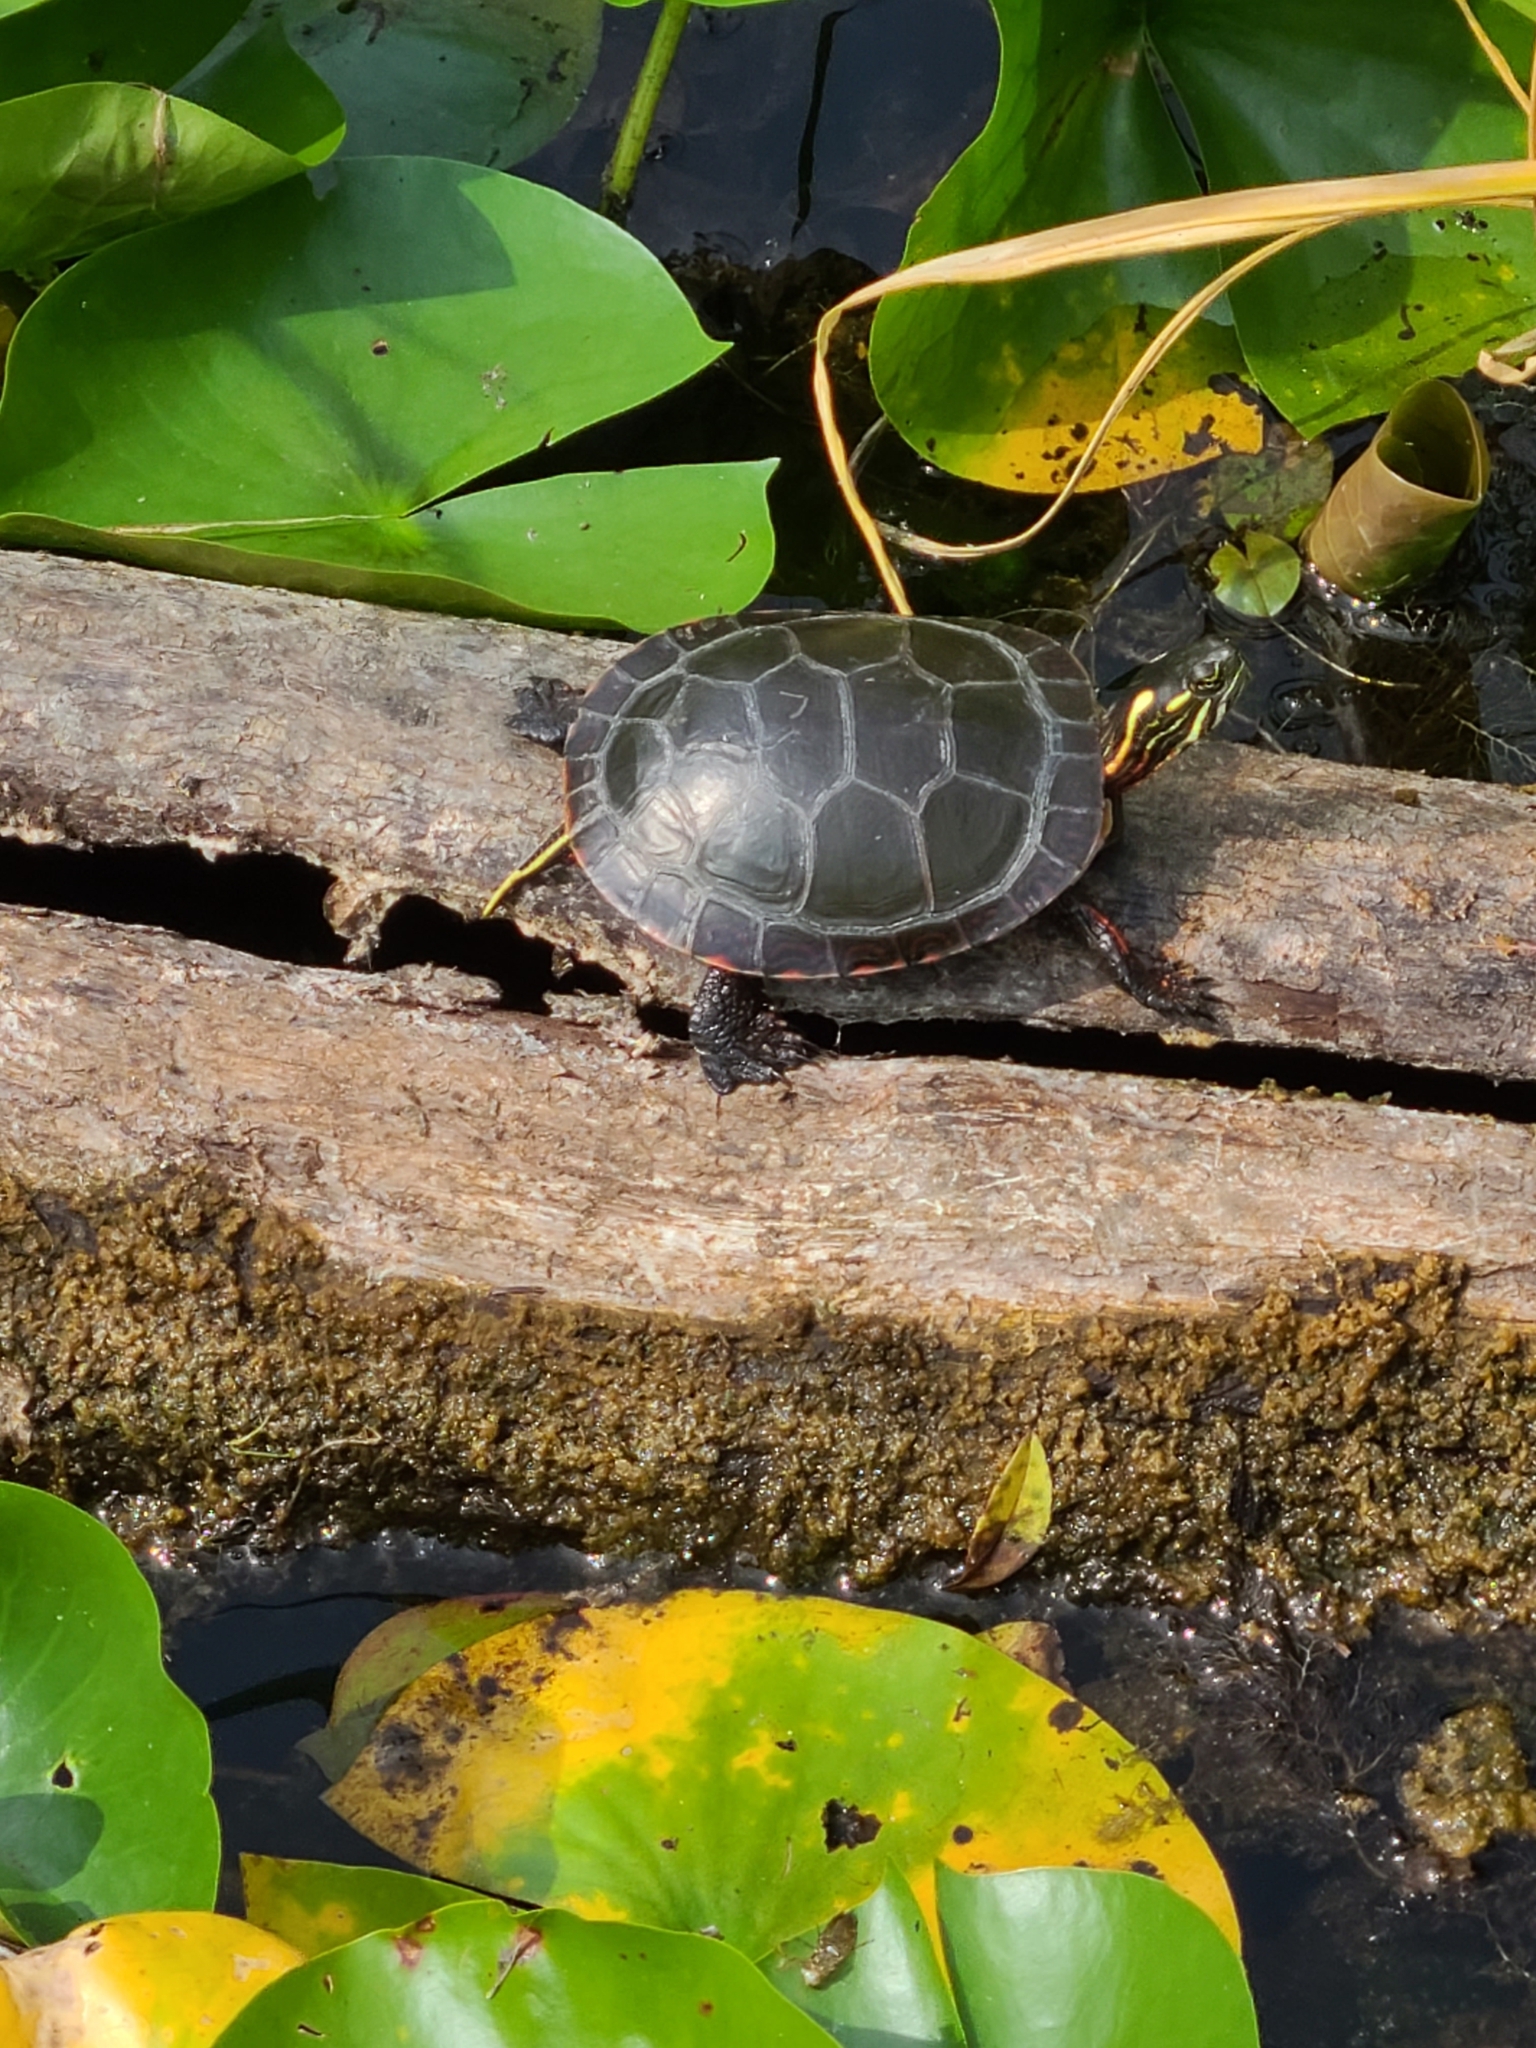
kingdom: Animalia
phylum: Chordata
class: Testudines
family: Emydidae
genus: Chrysemys
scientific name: Chrysemys picta
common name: Painted turtle
